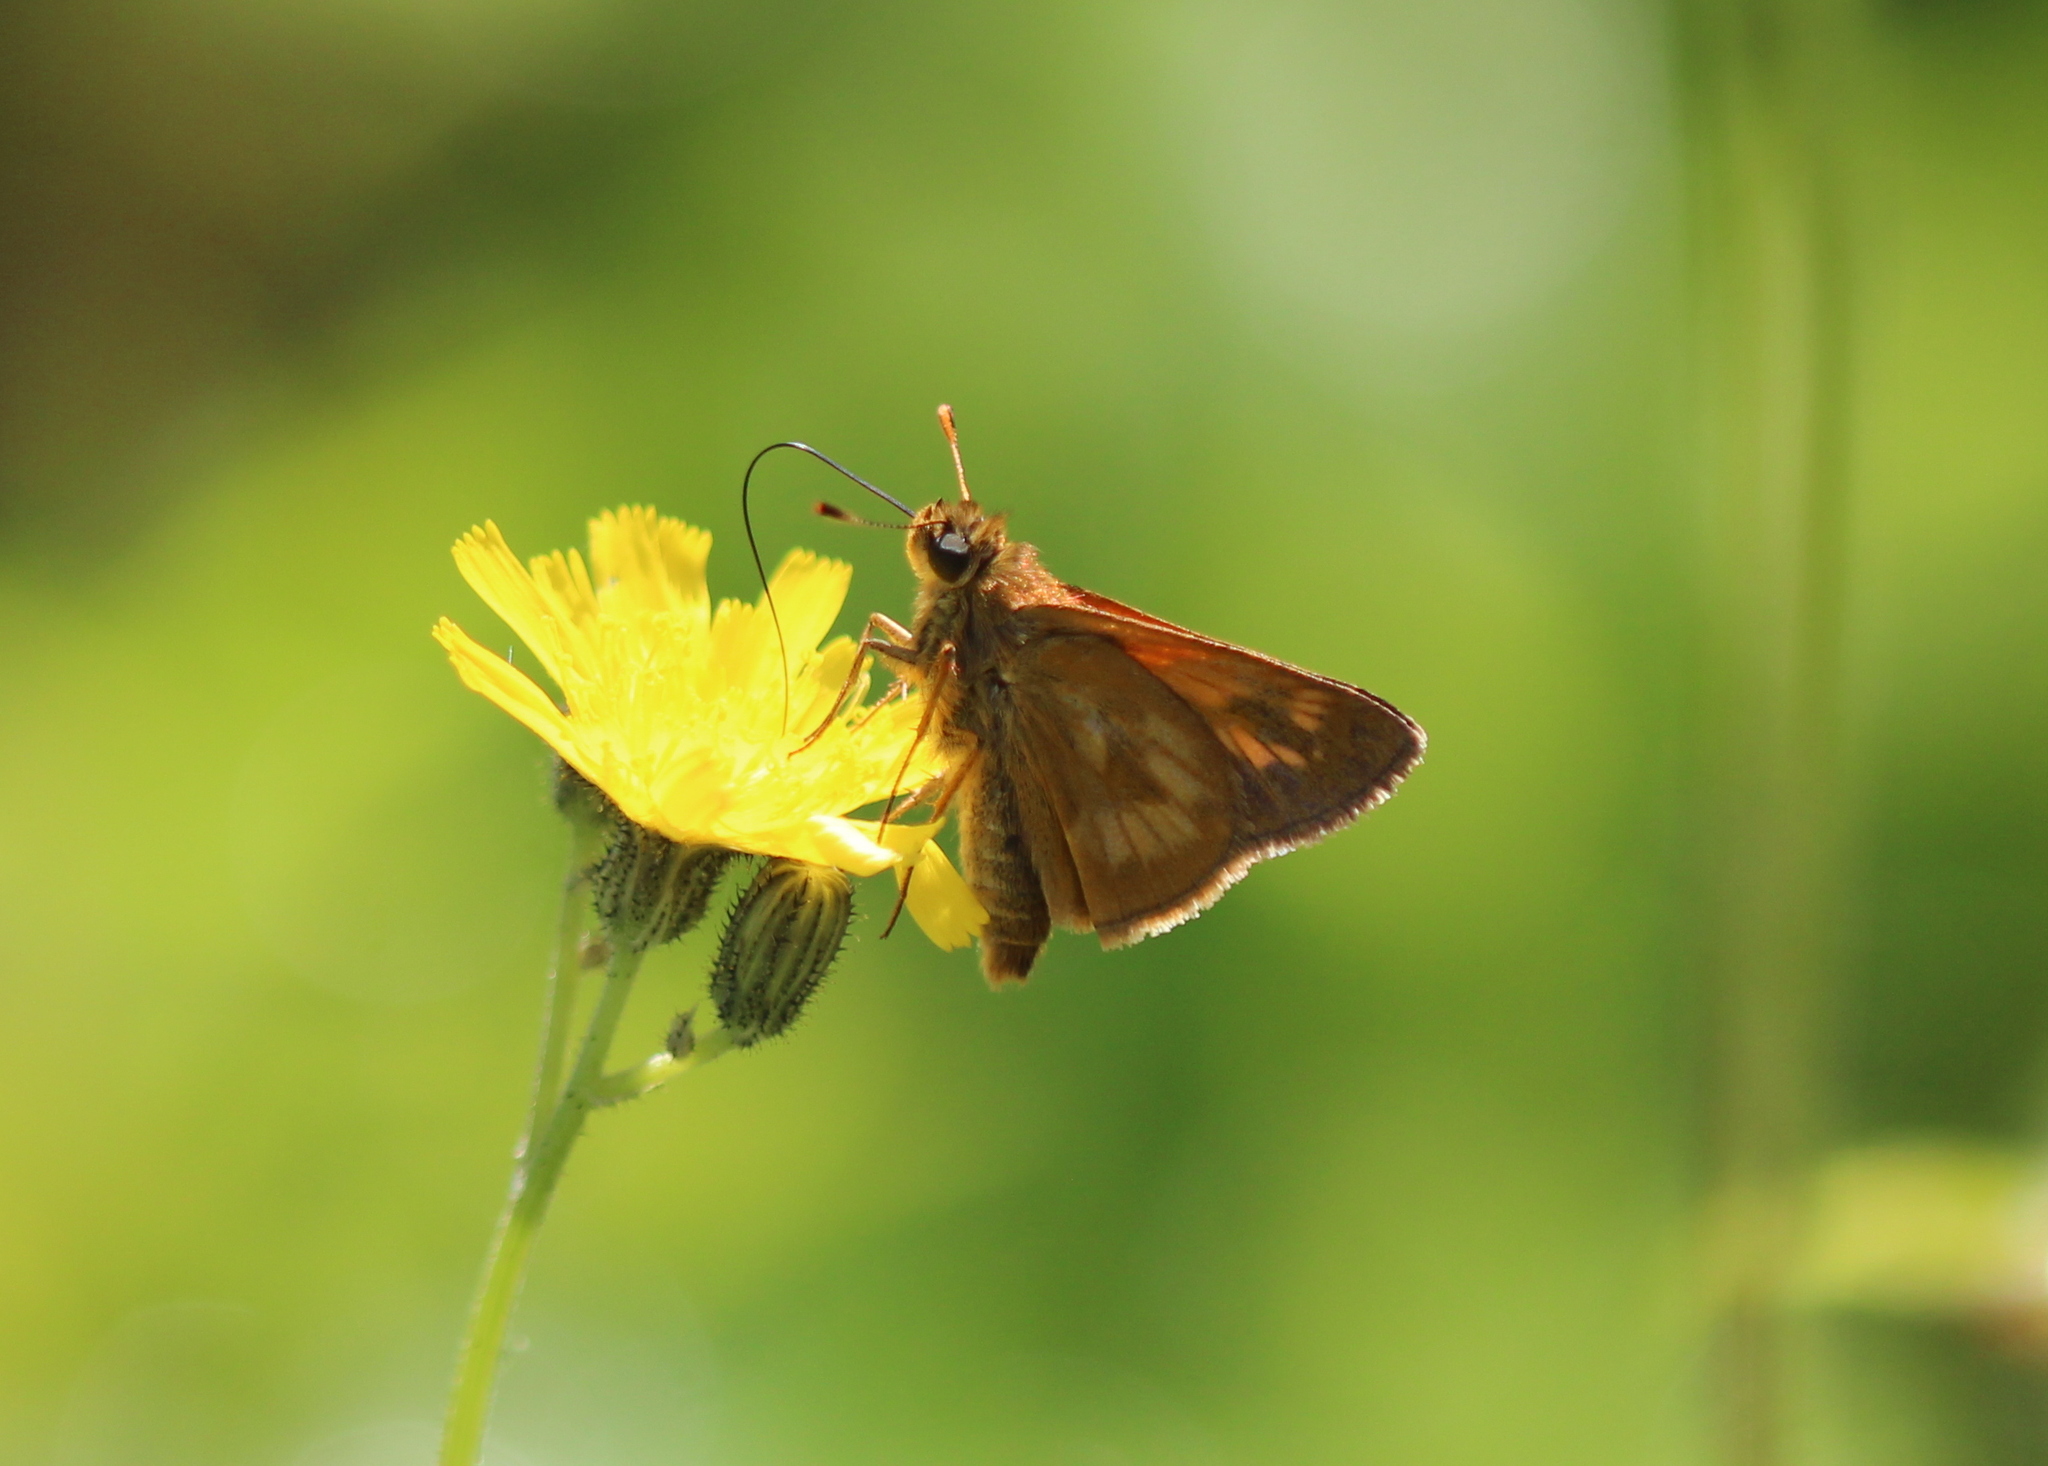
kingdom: Animalia
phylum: Arthropoda
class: Insecta
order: Lepidoptera
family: Hesperiidae
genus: Polites
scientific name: Polites mystic
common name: Long dash
